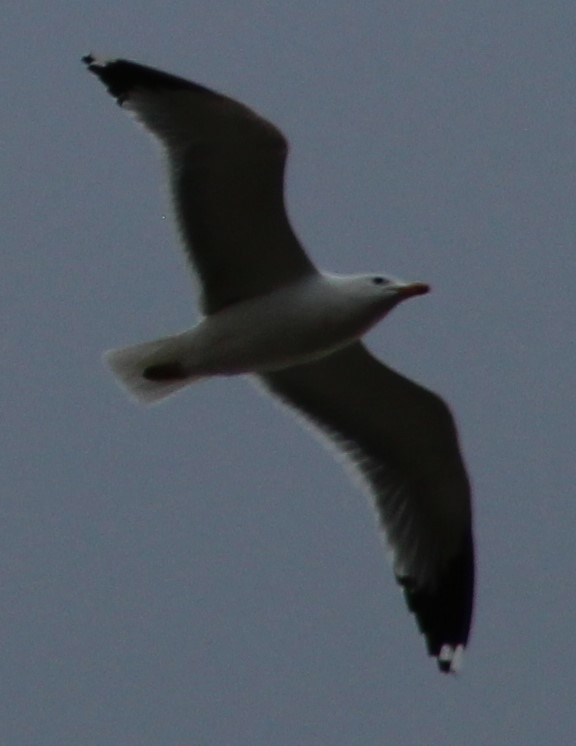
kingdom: Animalia
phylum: Chordata
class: Aves
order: Charadriiformes
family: Laridae
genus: Larus
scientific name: Larus californicus
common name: California gull
